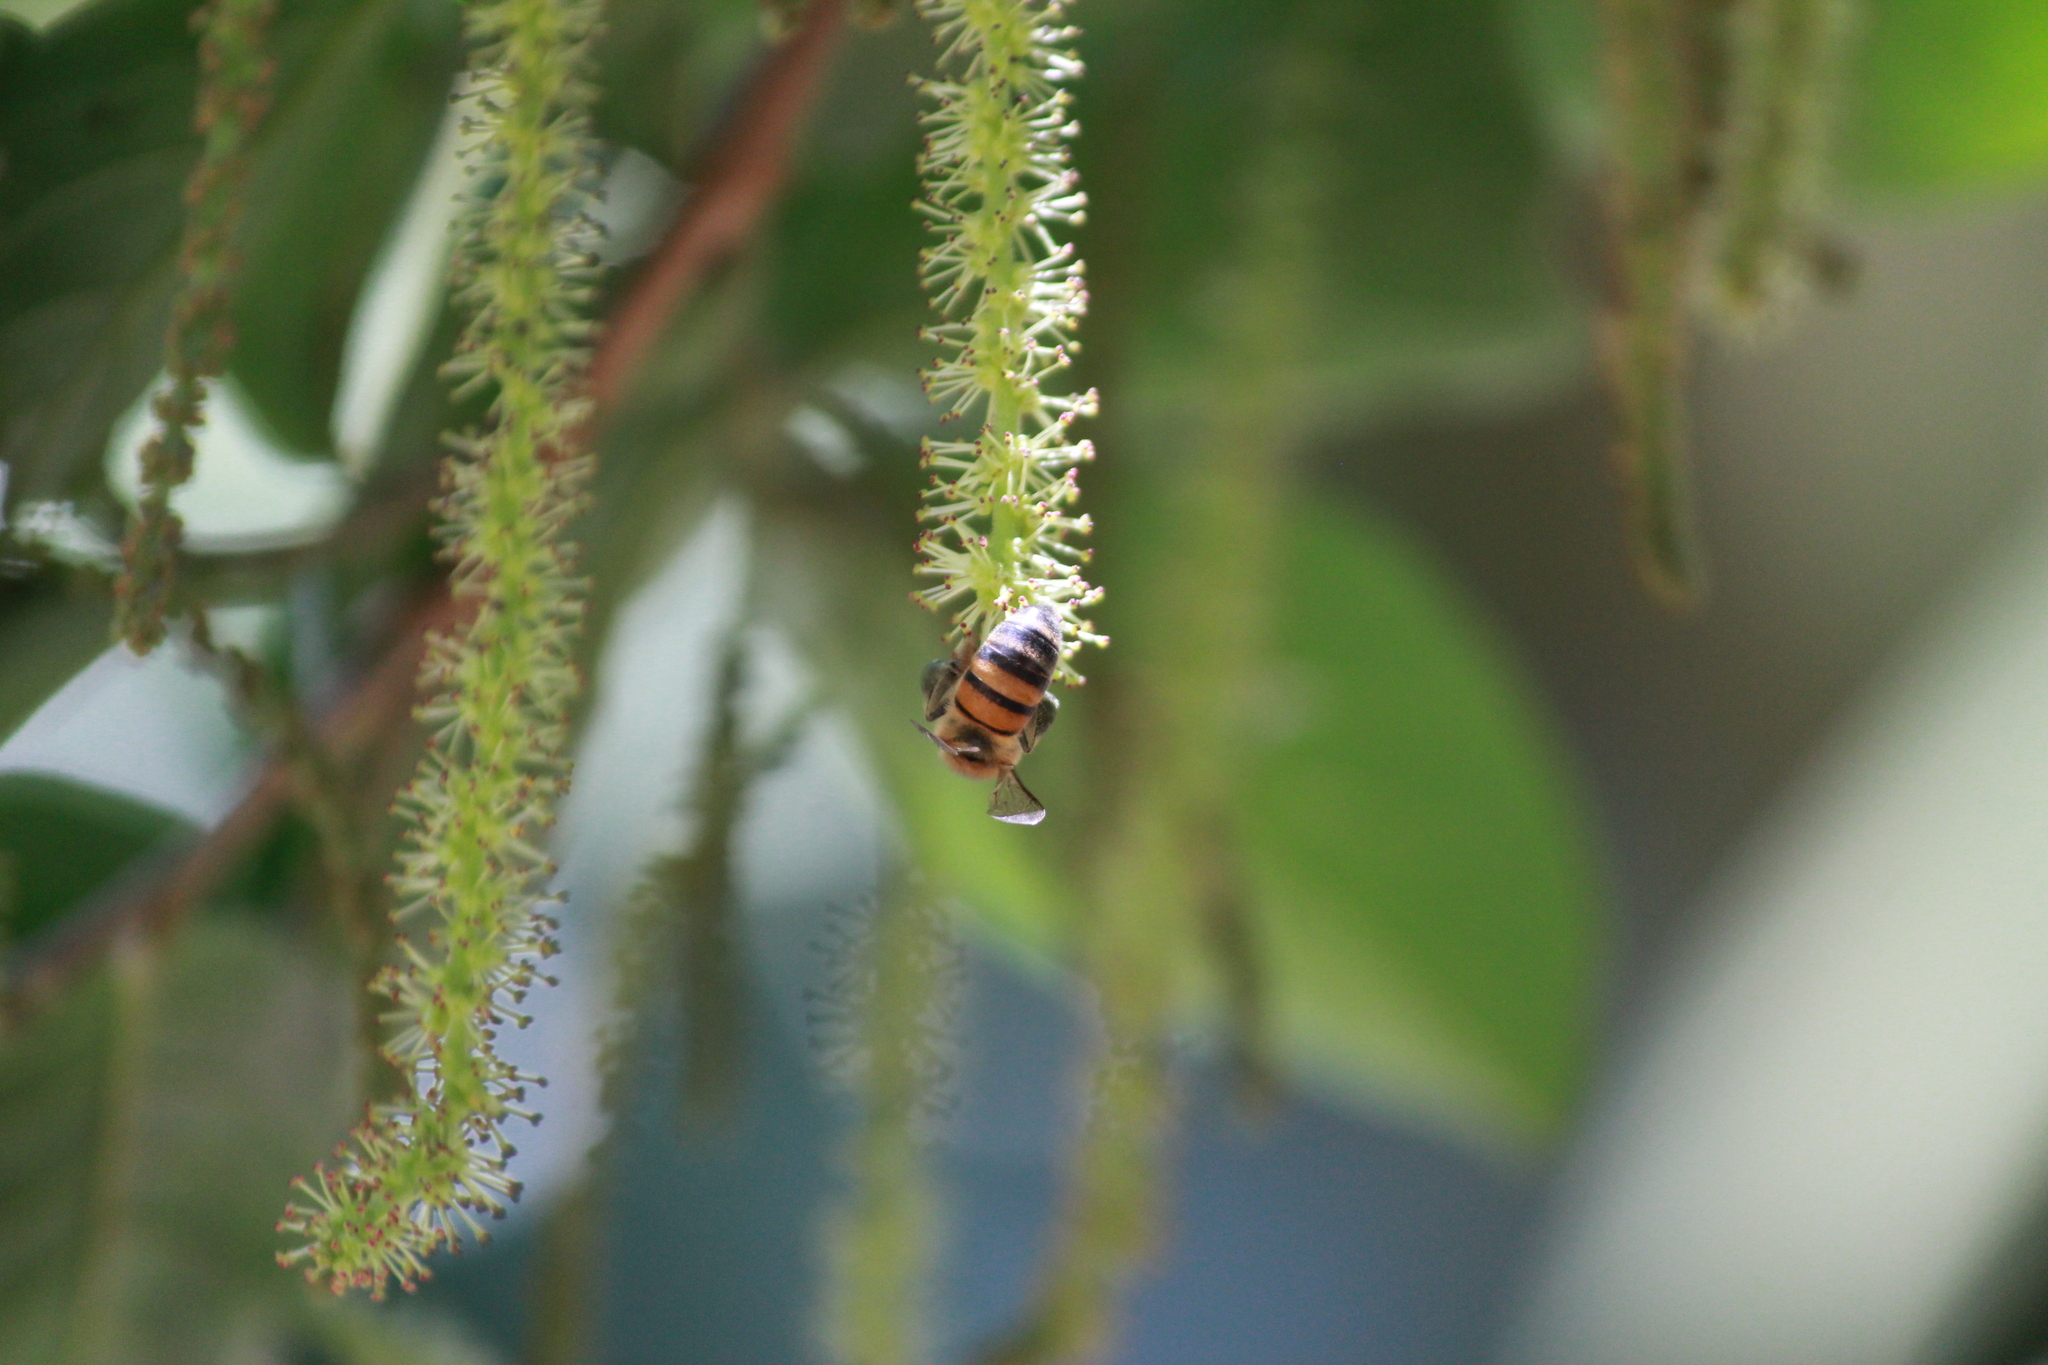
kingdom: Animalia
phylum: Arthropoda
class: Insecta
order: Hymenoptera
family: Apidae
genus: Apis
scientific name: Apis mellifera
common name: Honey bee
